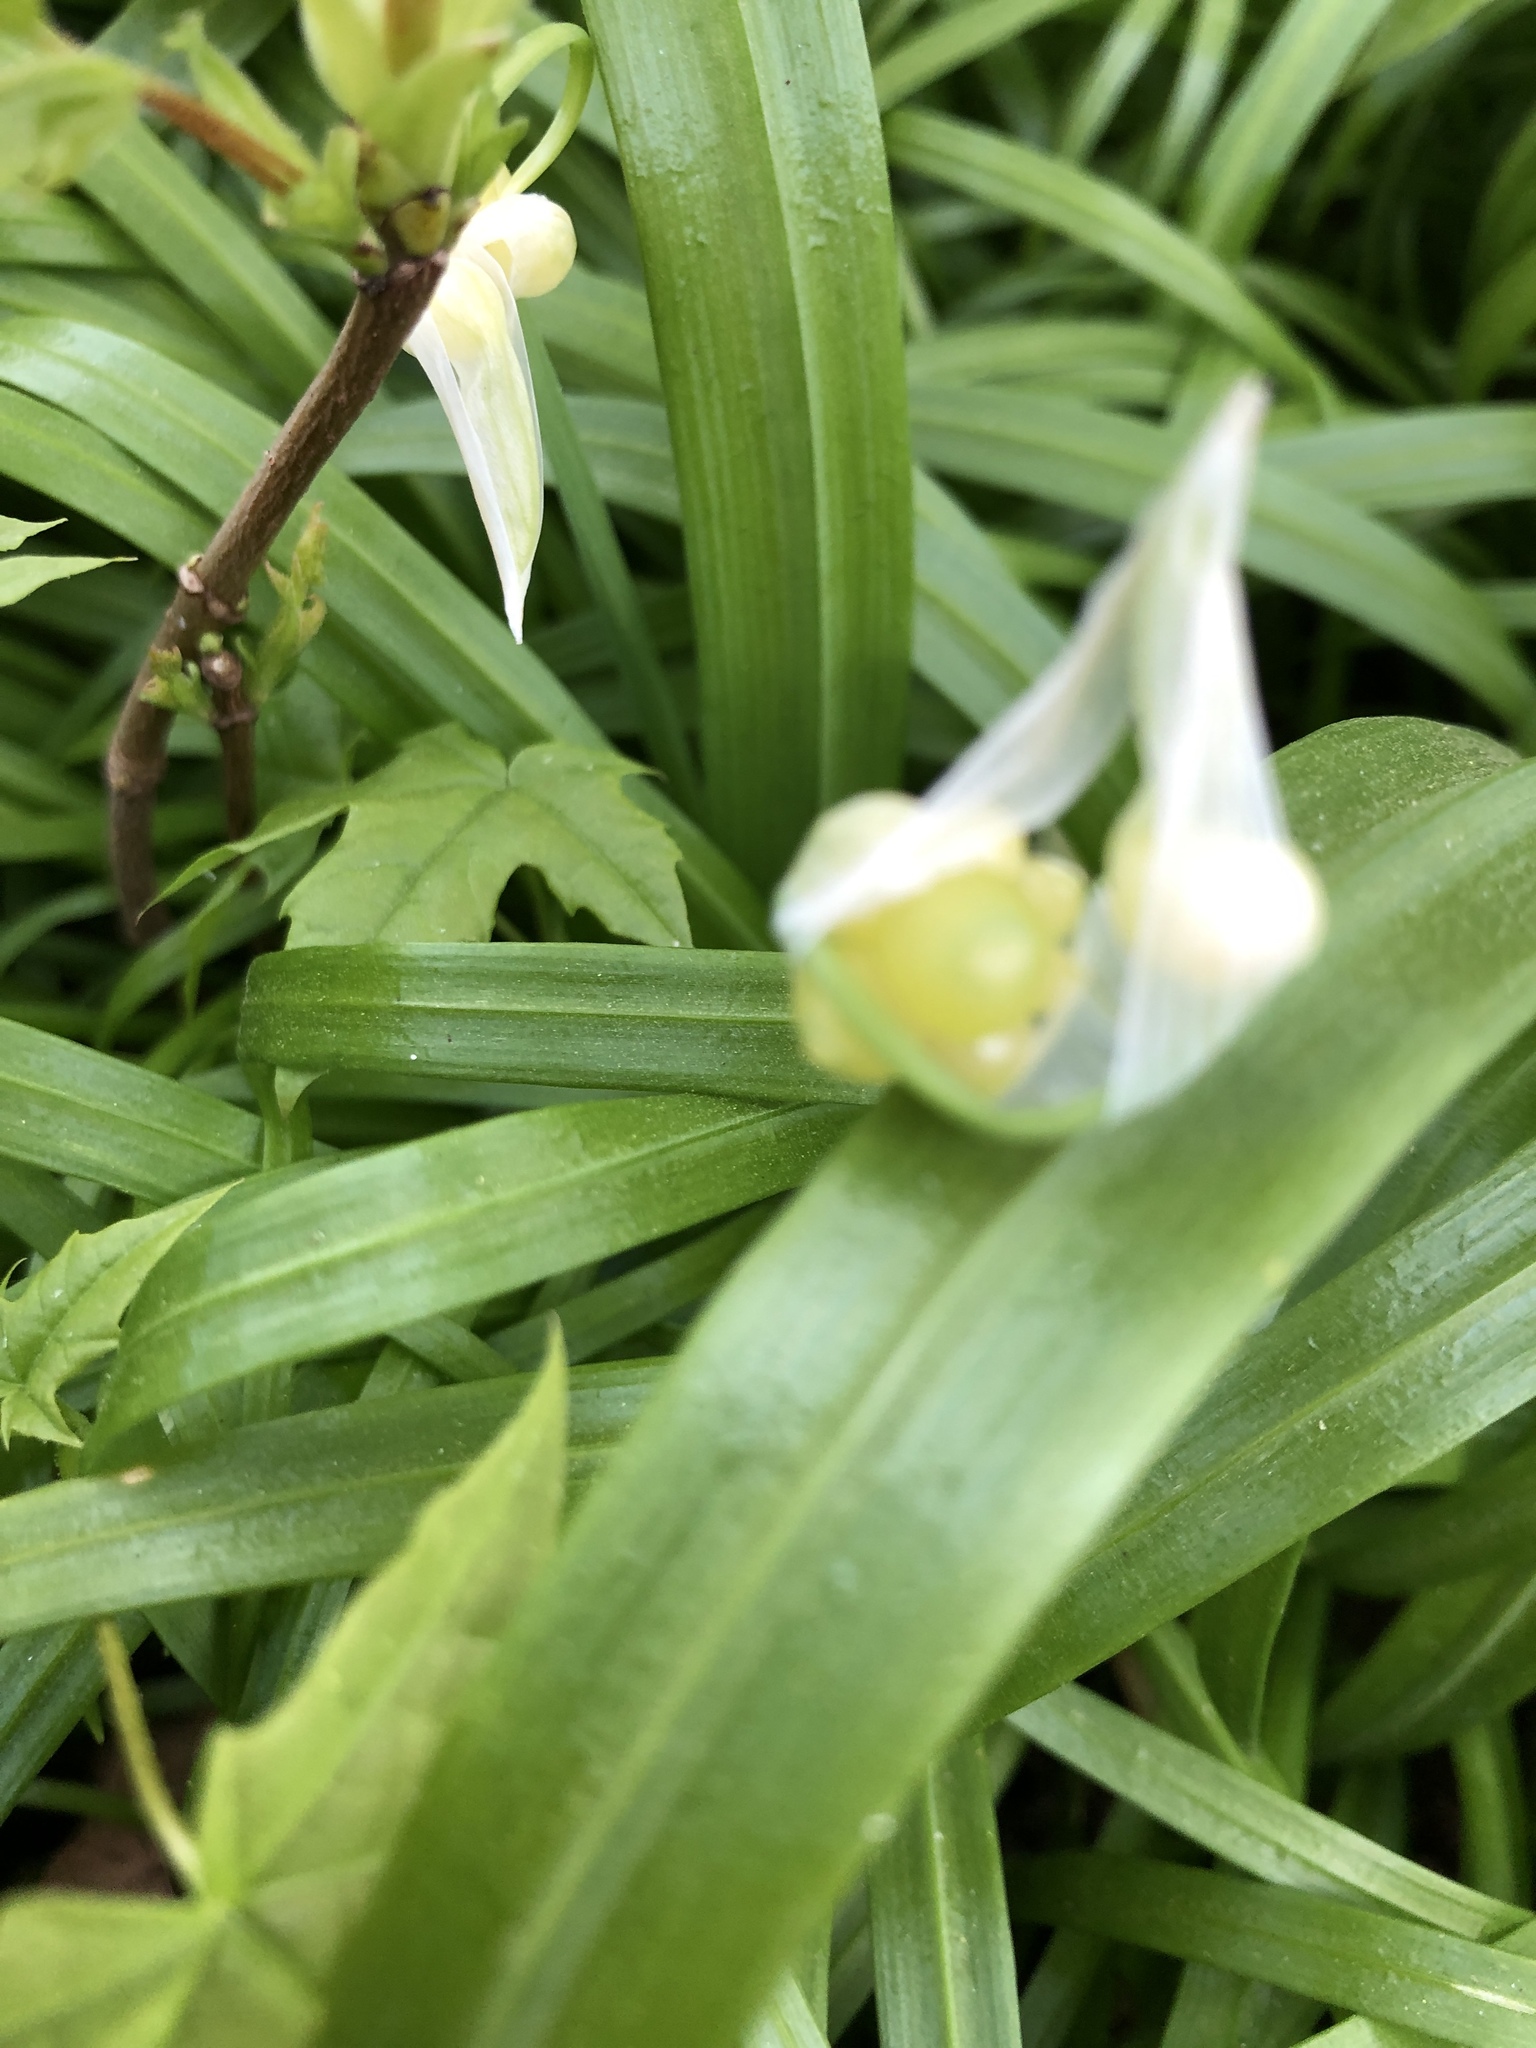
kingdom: Plantae
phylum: Tracheophyta
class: Liliopsida
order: Asparagales
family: Amaryllidaceae
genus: Allium
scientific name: Allium paradoxum
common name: Few-flowered garlic
